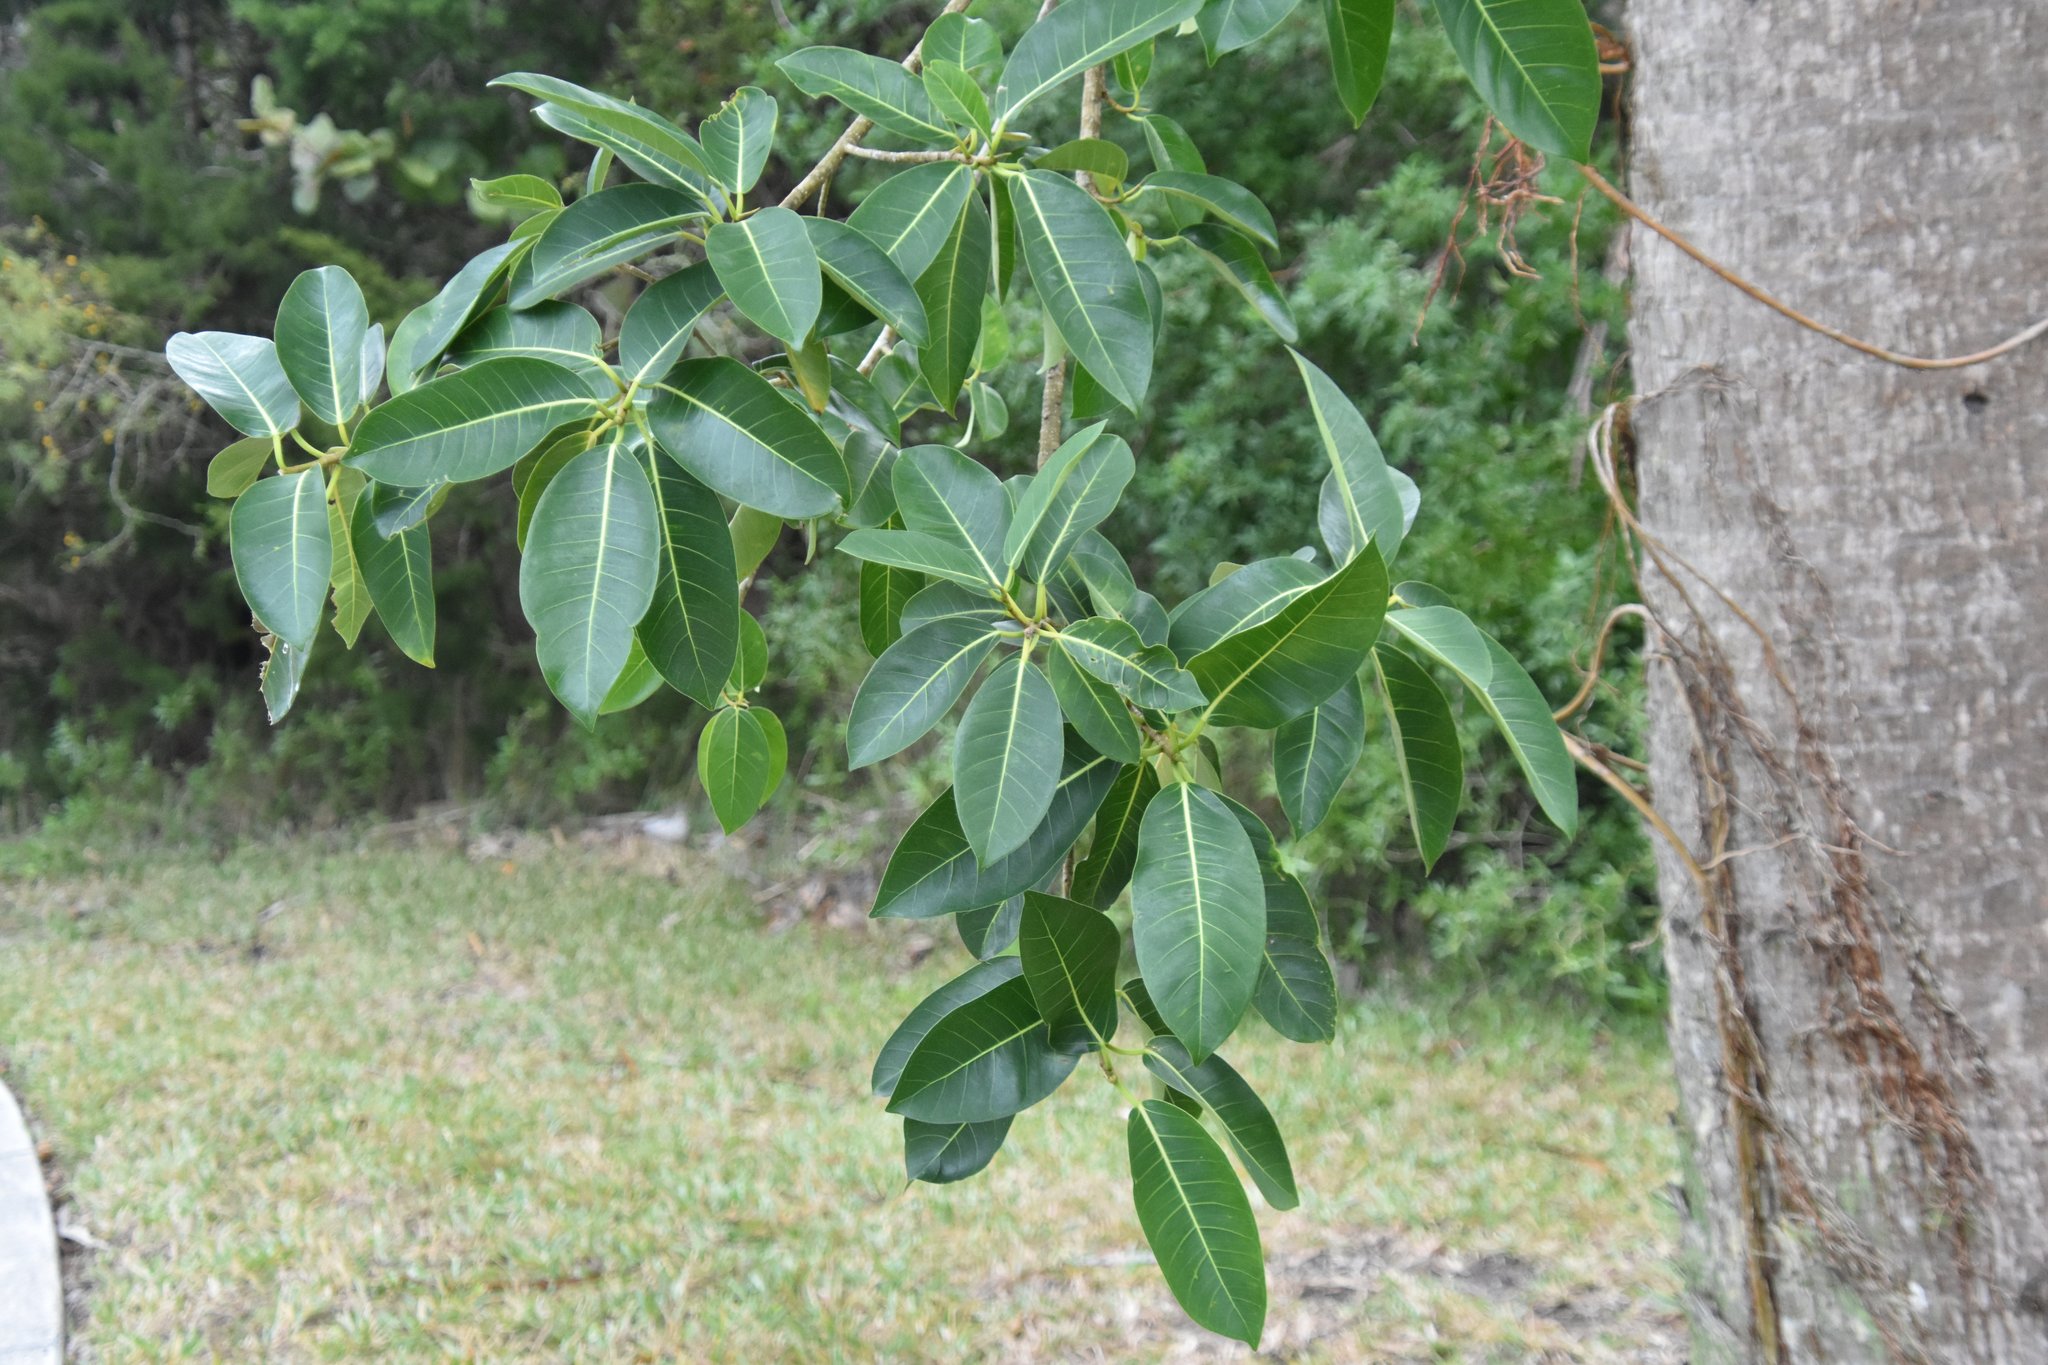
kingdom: Plantae
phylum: Tracheophyta
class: Magnoliopsida
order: Rosales
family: Moraceae
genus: Ficus
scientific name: Ficus aurea
